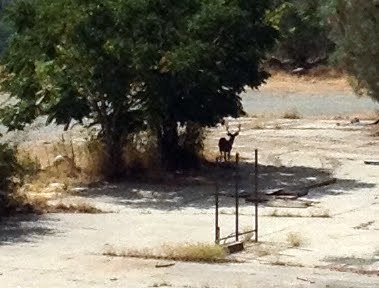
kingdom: Animalia
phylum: Chordata
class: Mammalia
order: Artiodactyla
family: Cervidae
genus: Odocoileus
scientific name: Odocoileus hemionus
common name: Mule deer
